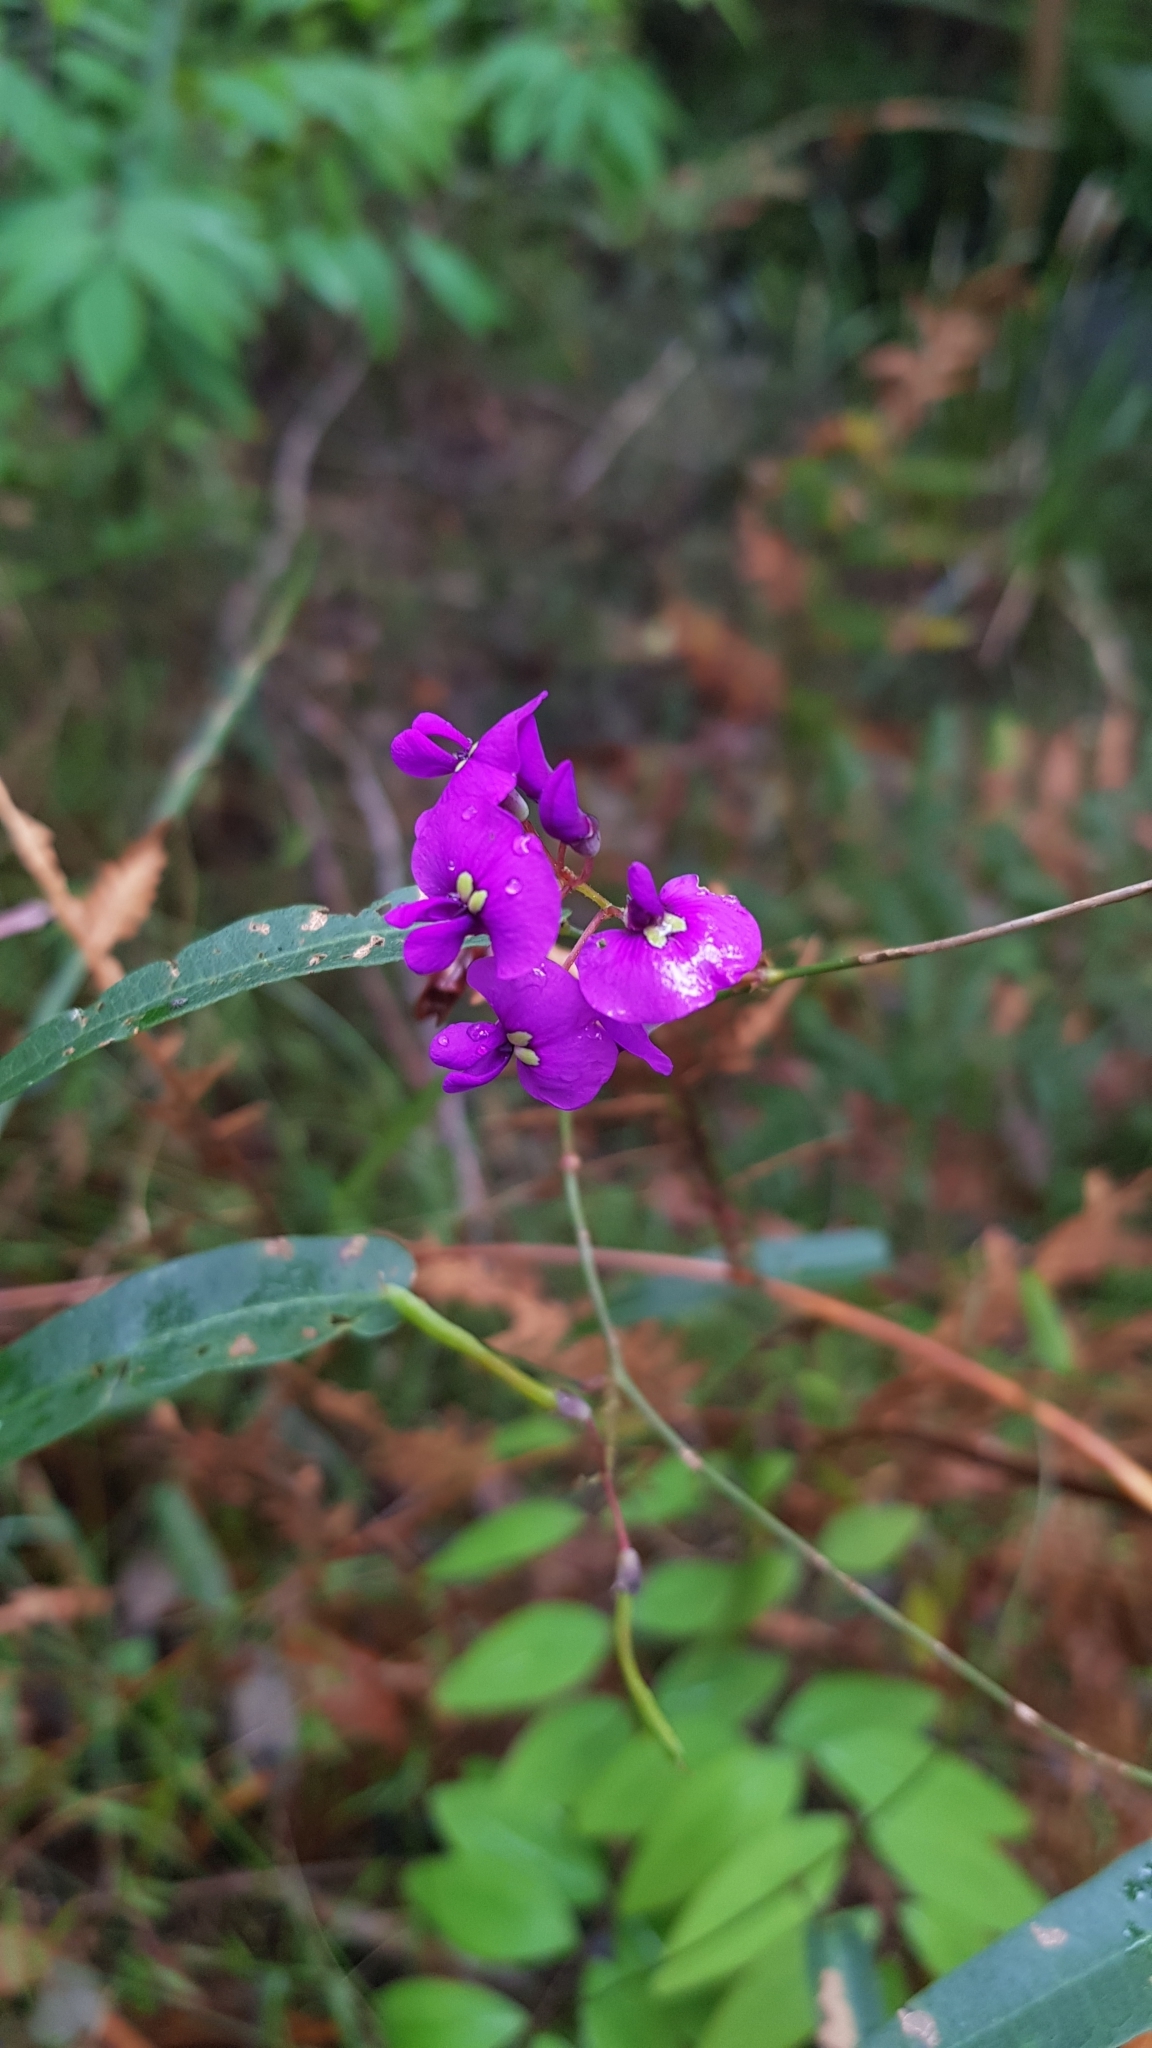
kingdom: Plantae
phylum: Tracheophyta
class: Magnoliopsida
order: Fabales
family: Fabaceae
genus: Hardenbergia
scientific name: Hardenbergia violacea
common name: Coral-pea
